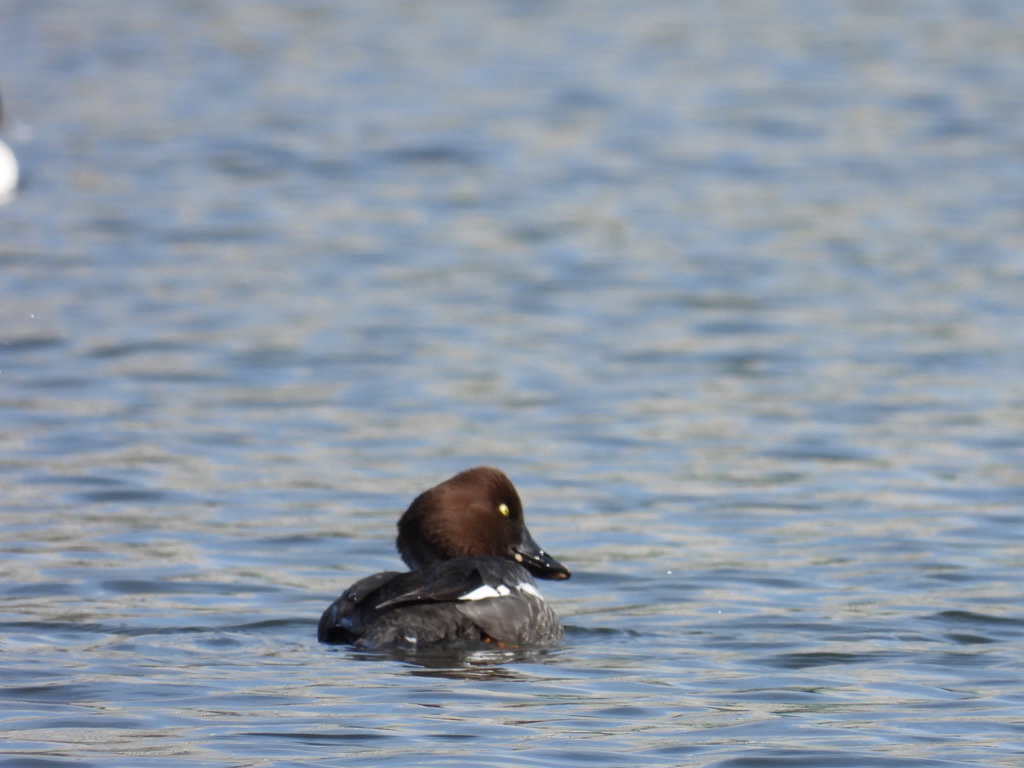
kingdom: Animalia
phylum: Chordata
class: Aves
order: Anseriformes
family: Anatidae
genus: Bucephala
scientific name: Bucephala clangula
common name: Common goldeneye
